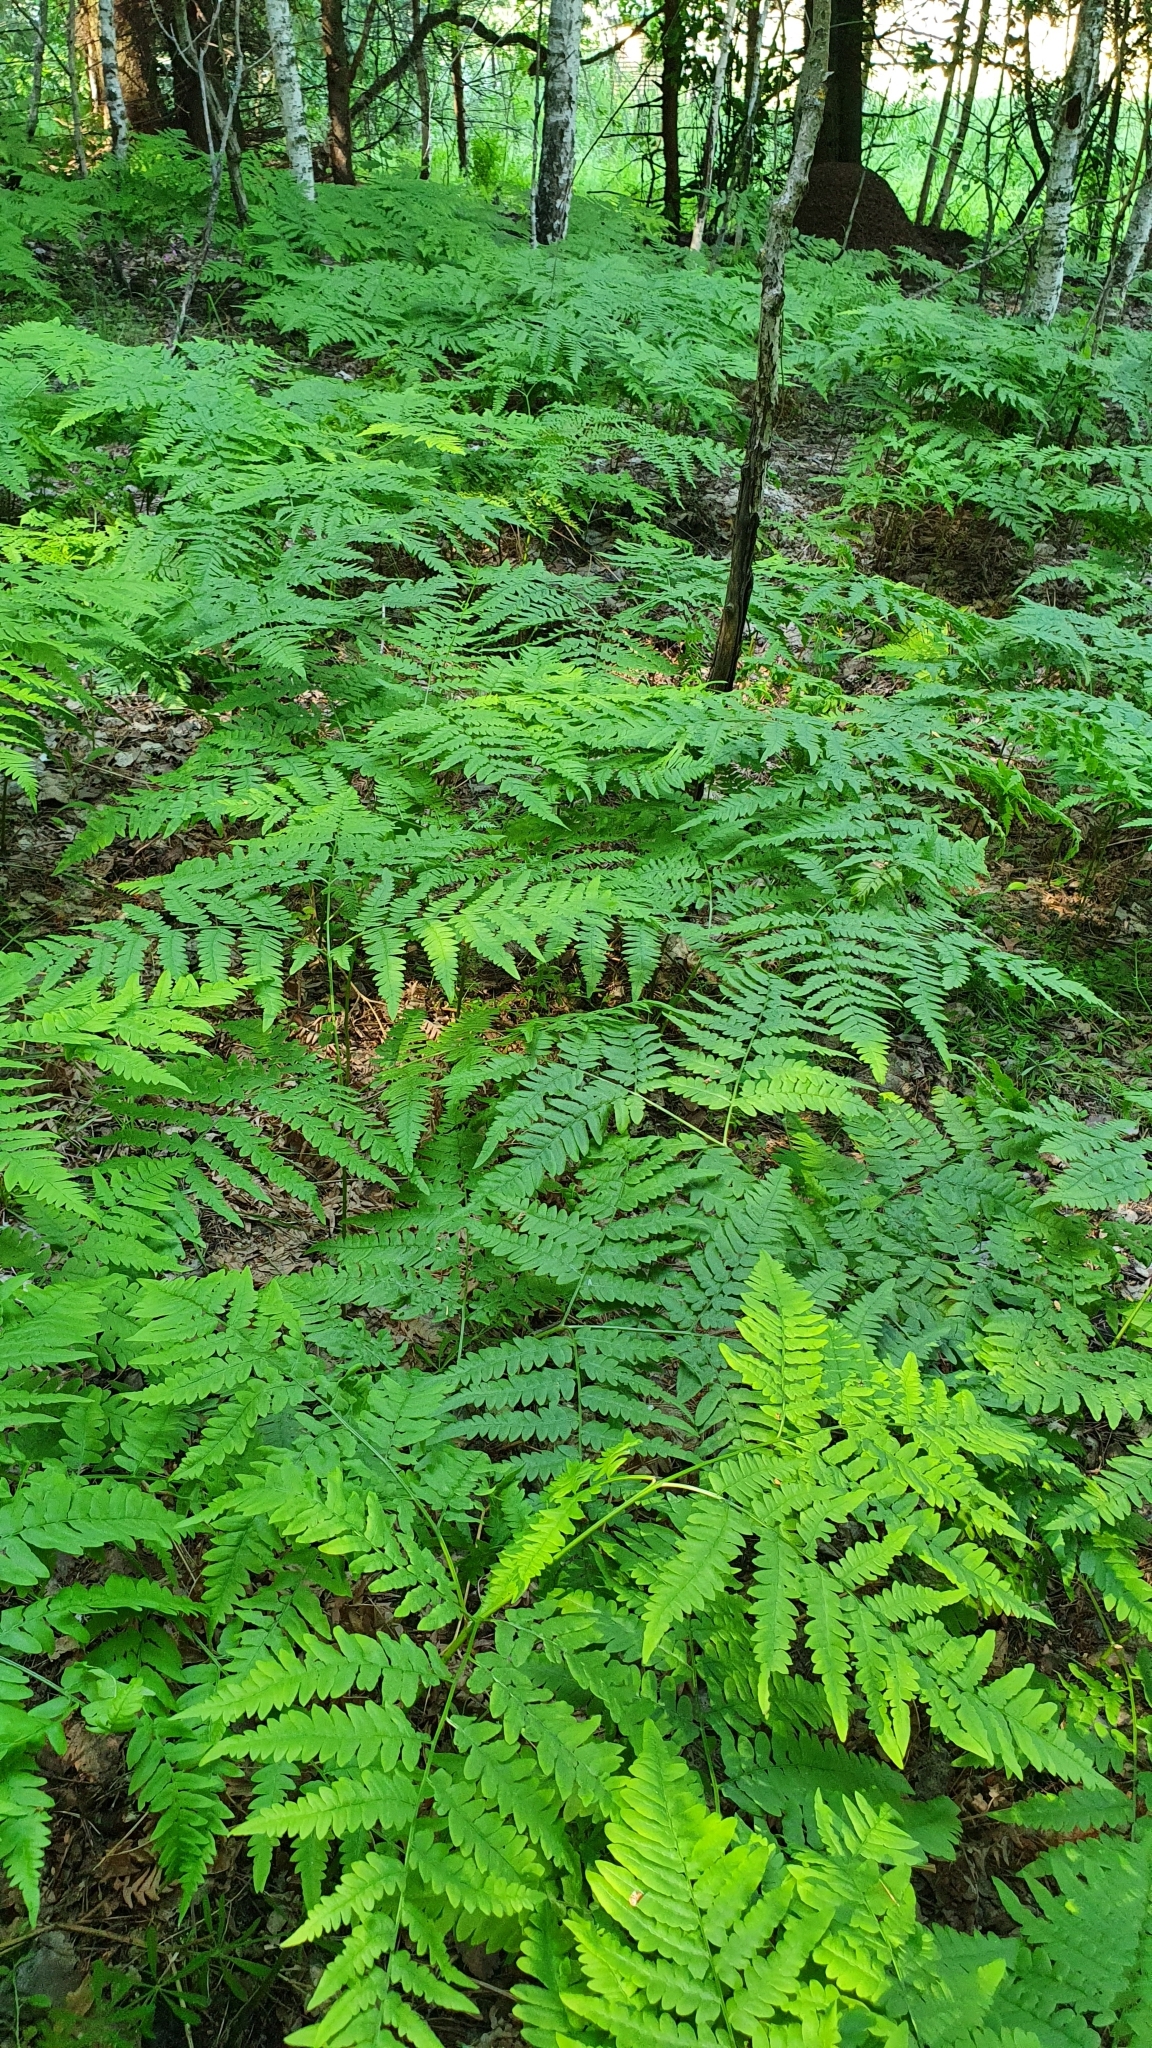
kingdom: Plantae
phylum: Tracheophyta
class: Polypodiopsida
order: Polypodiales
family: Dennstaedtiaceae
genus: Pteridium
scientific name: Pteridium aquilinum
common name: Bracken
